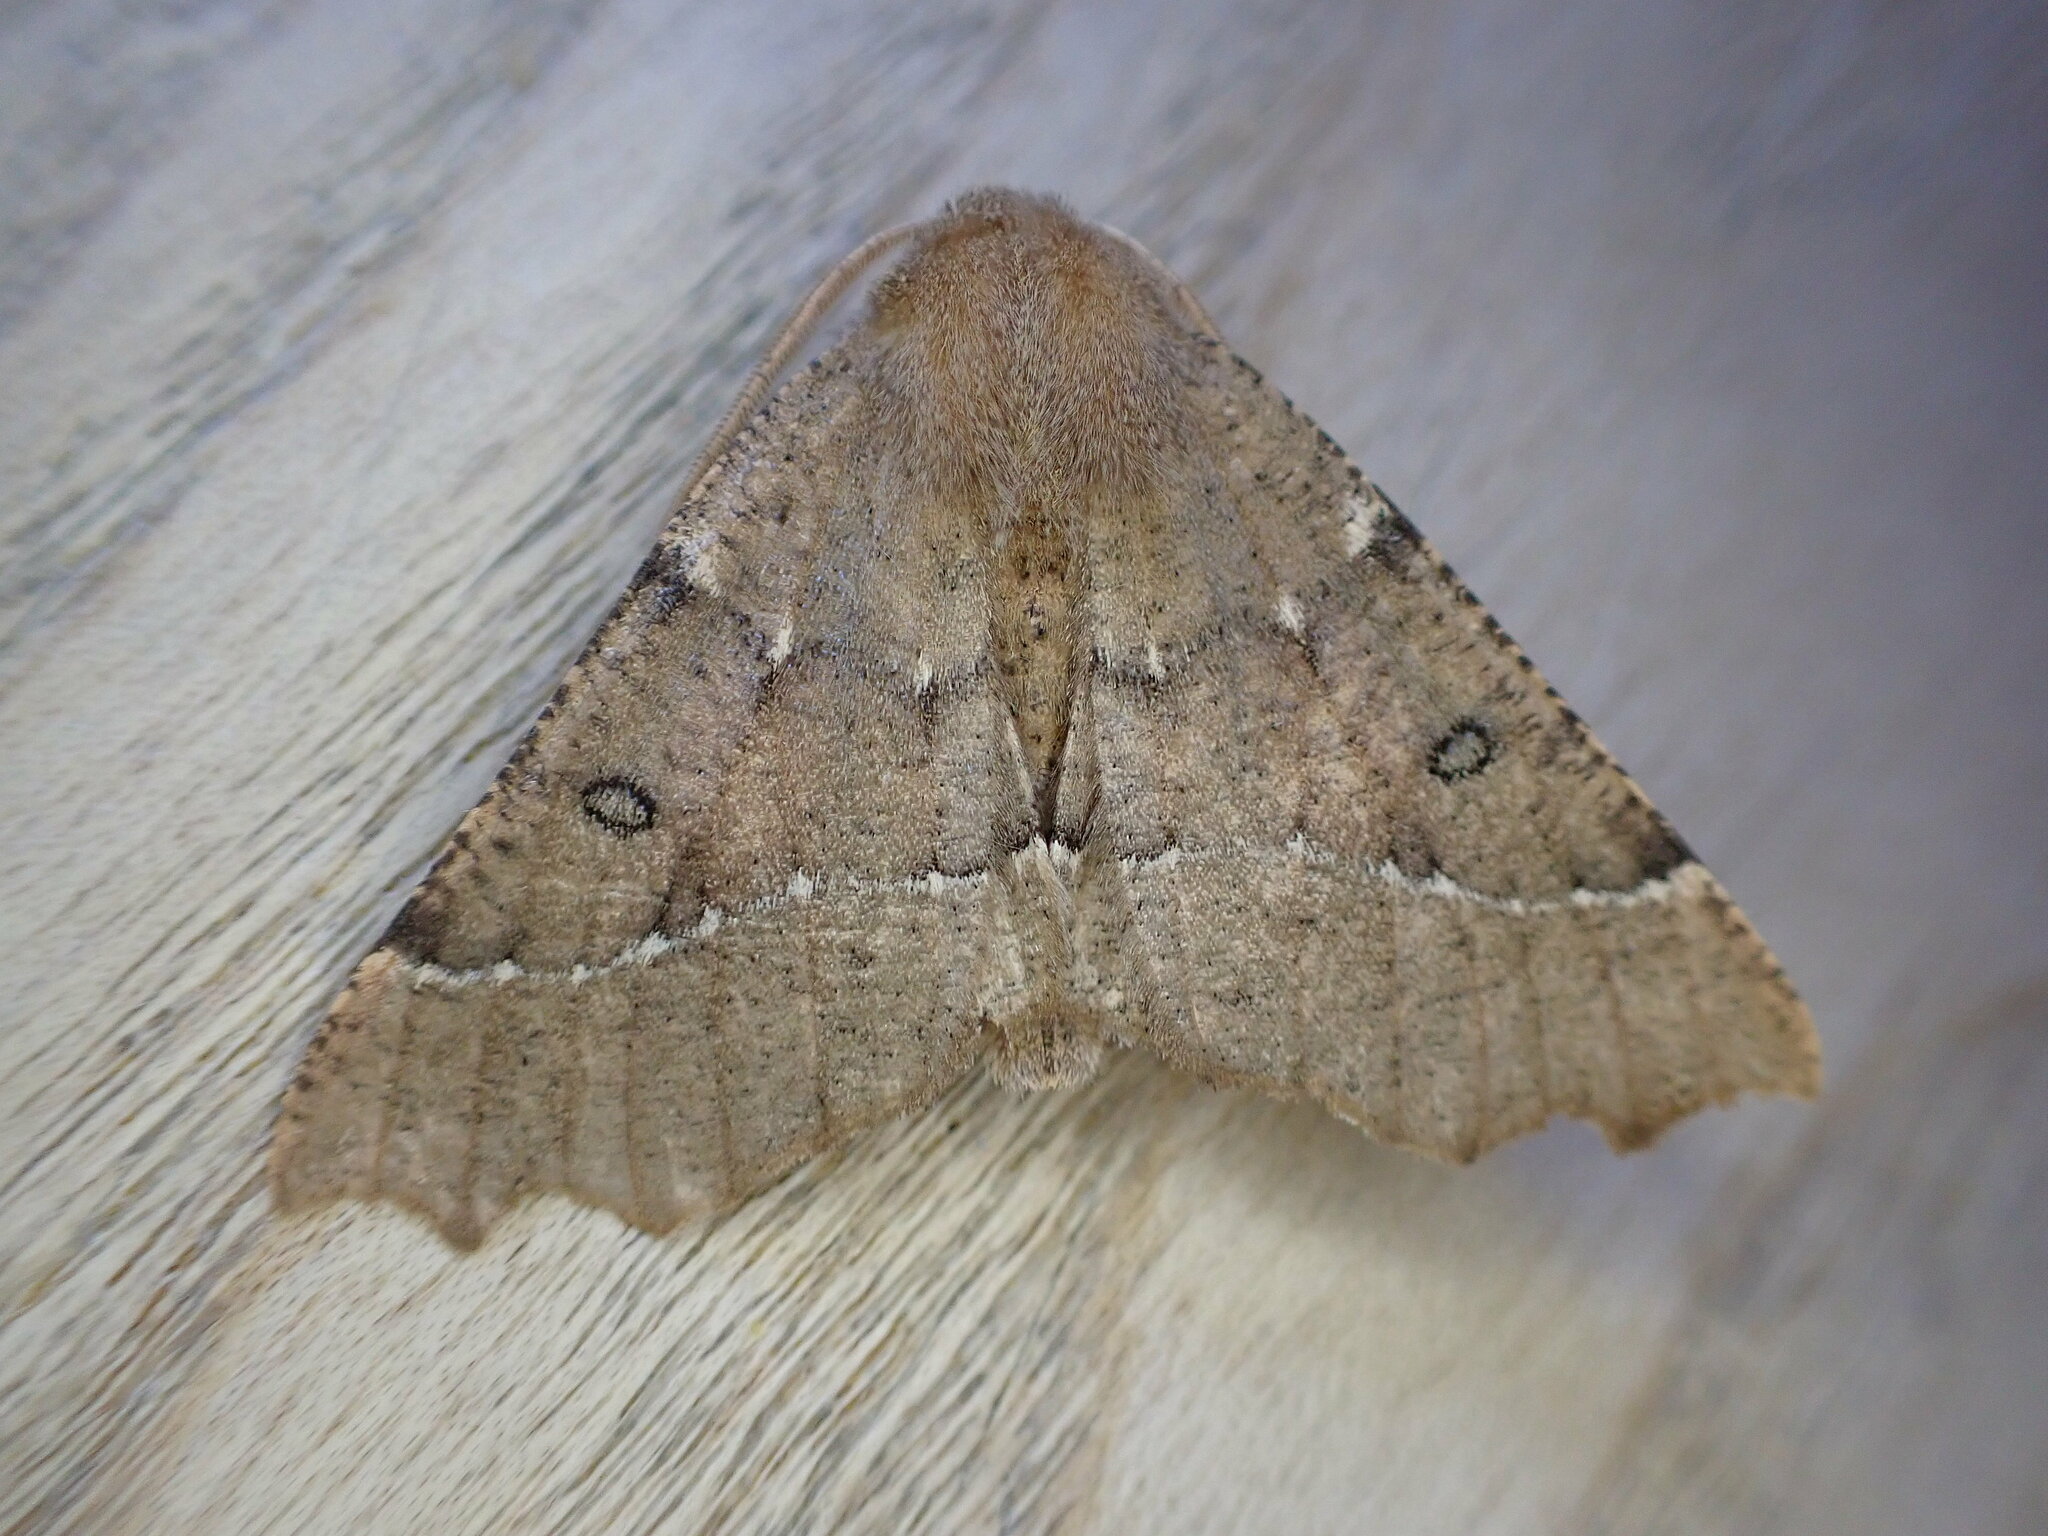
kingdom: Animalia
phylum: Arthropoda
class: Insecta
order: Lepidoptera
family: Geometridae
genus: Odontopera
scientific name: Odontopera bidentata
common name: Scalloped hazel
